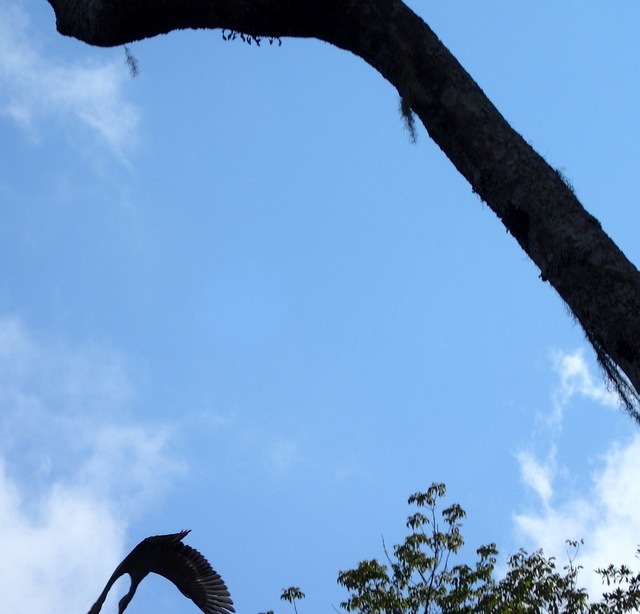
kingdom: Animalia
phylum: Chordata
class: Aves
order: Pelecaniformes
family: Threskiornithidae
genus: Eudocimus
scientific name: Eudocimus albus
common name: White ibis
